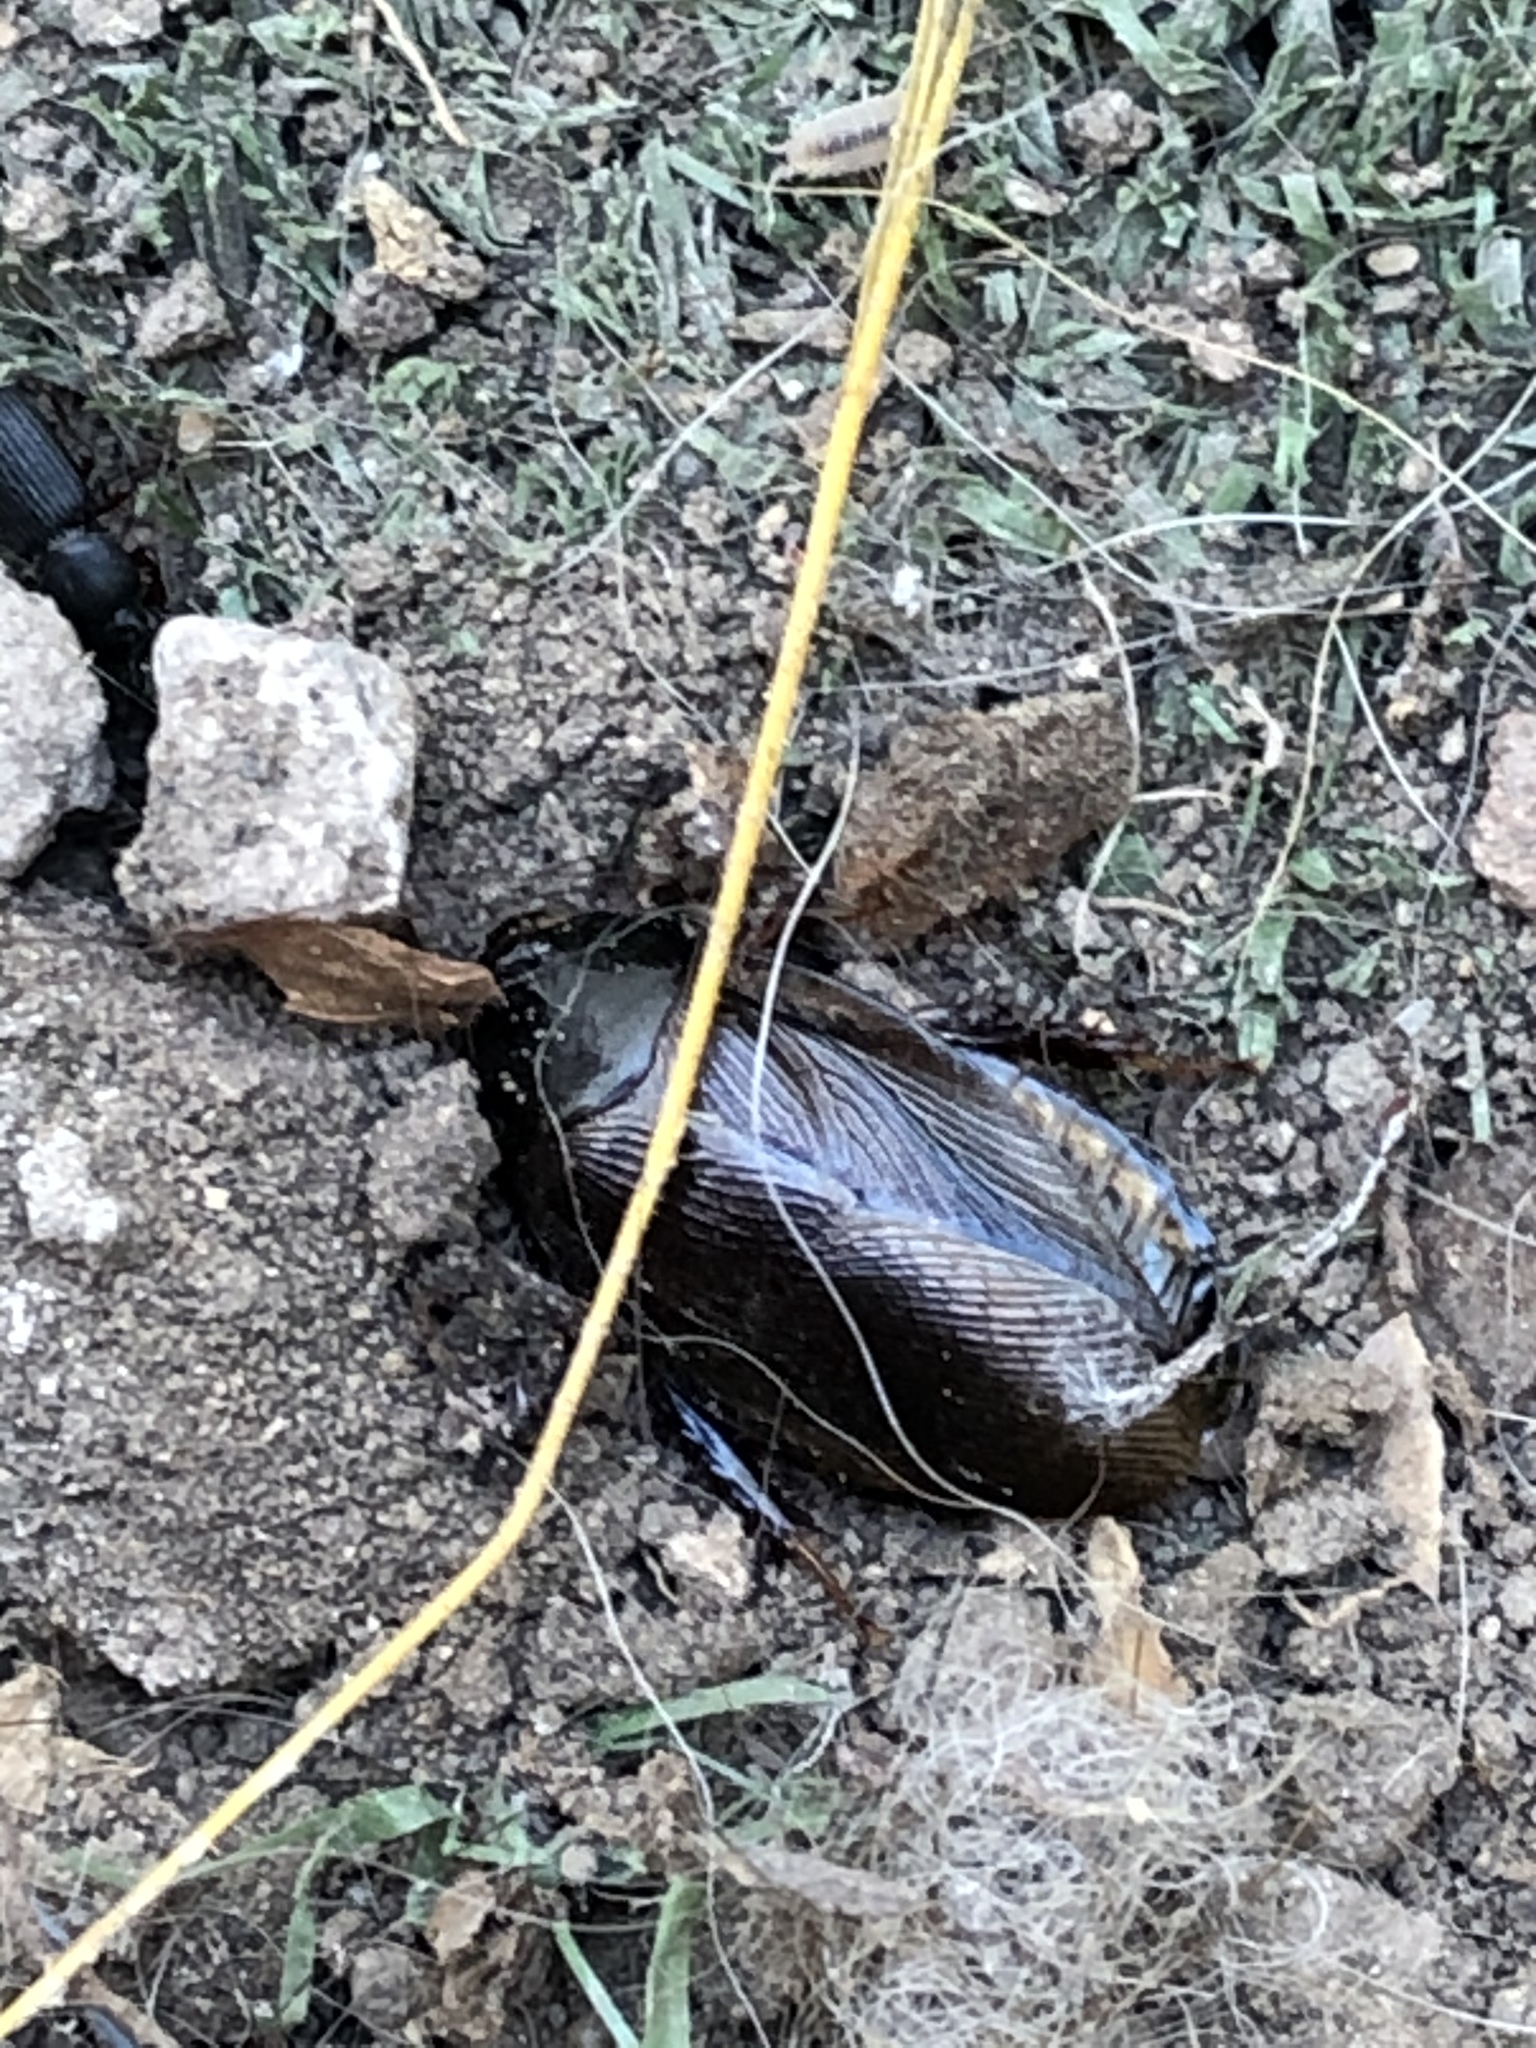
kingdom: Animalia
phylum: Arthropoda
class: Insecta
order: Blattodea
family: Blaberidae
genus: Pycnoscelus
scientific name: Pycnoscelus surinamensis
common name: Surinam cockroach
